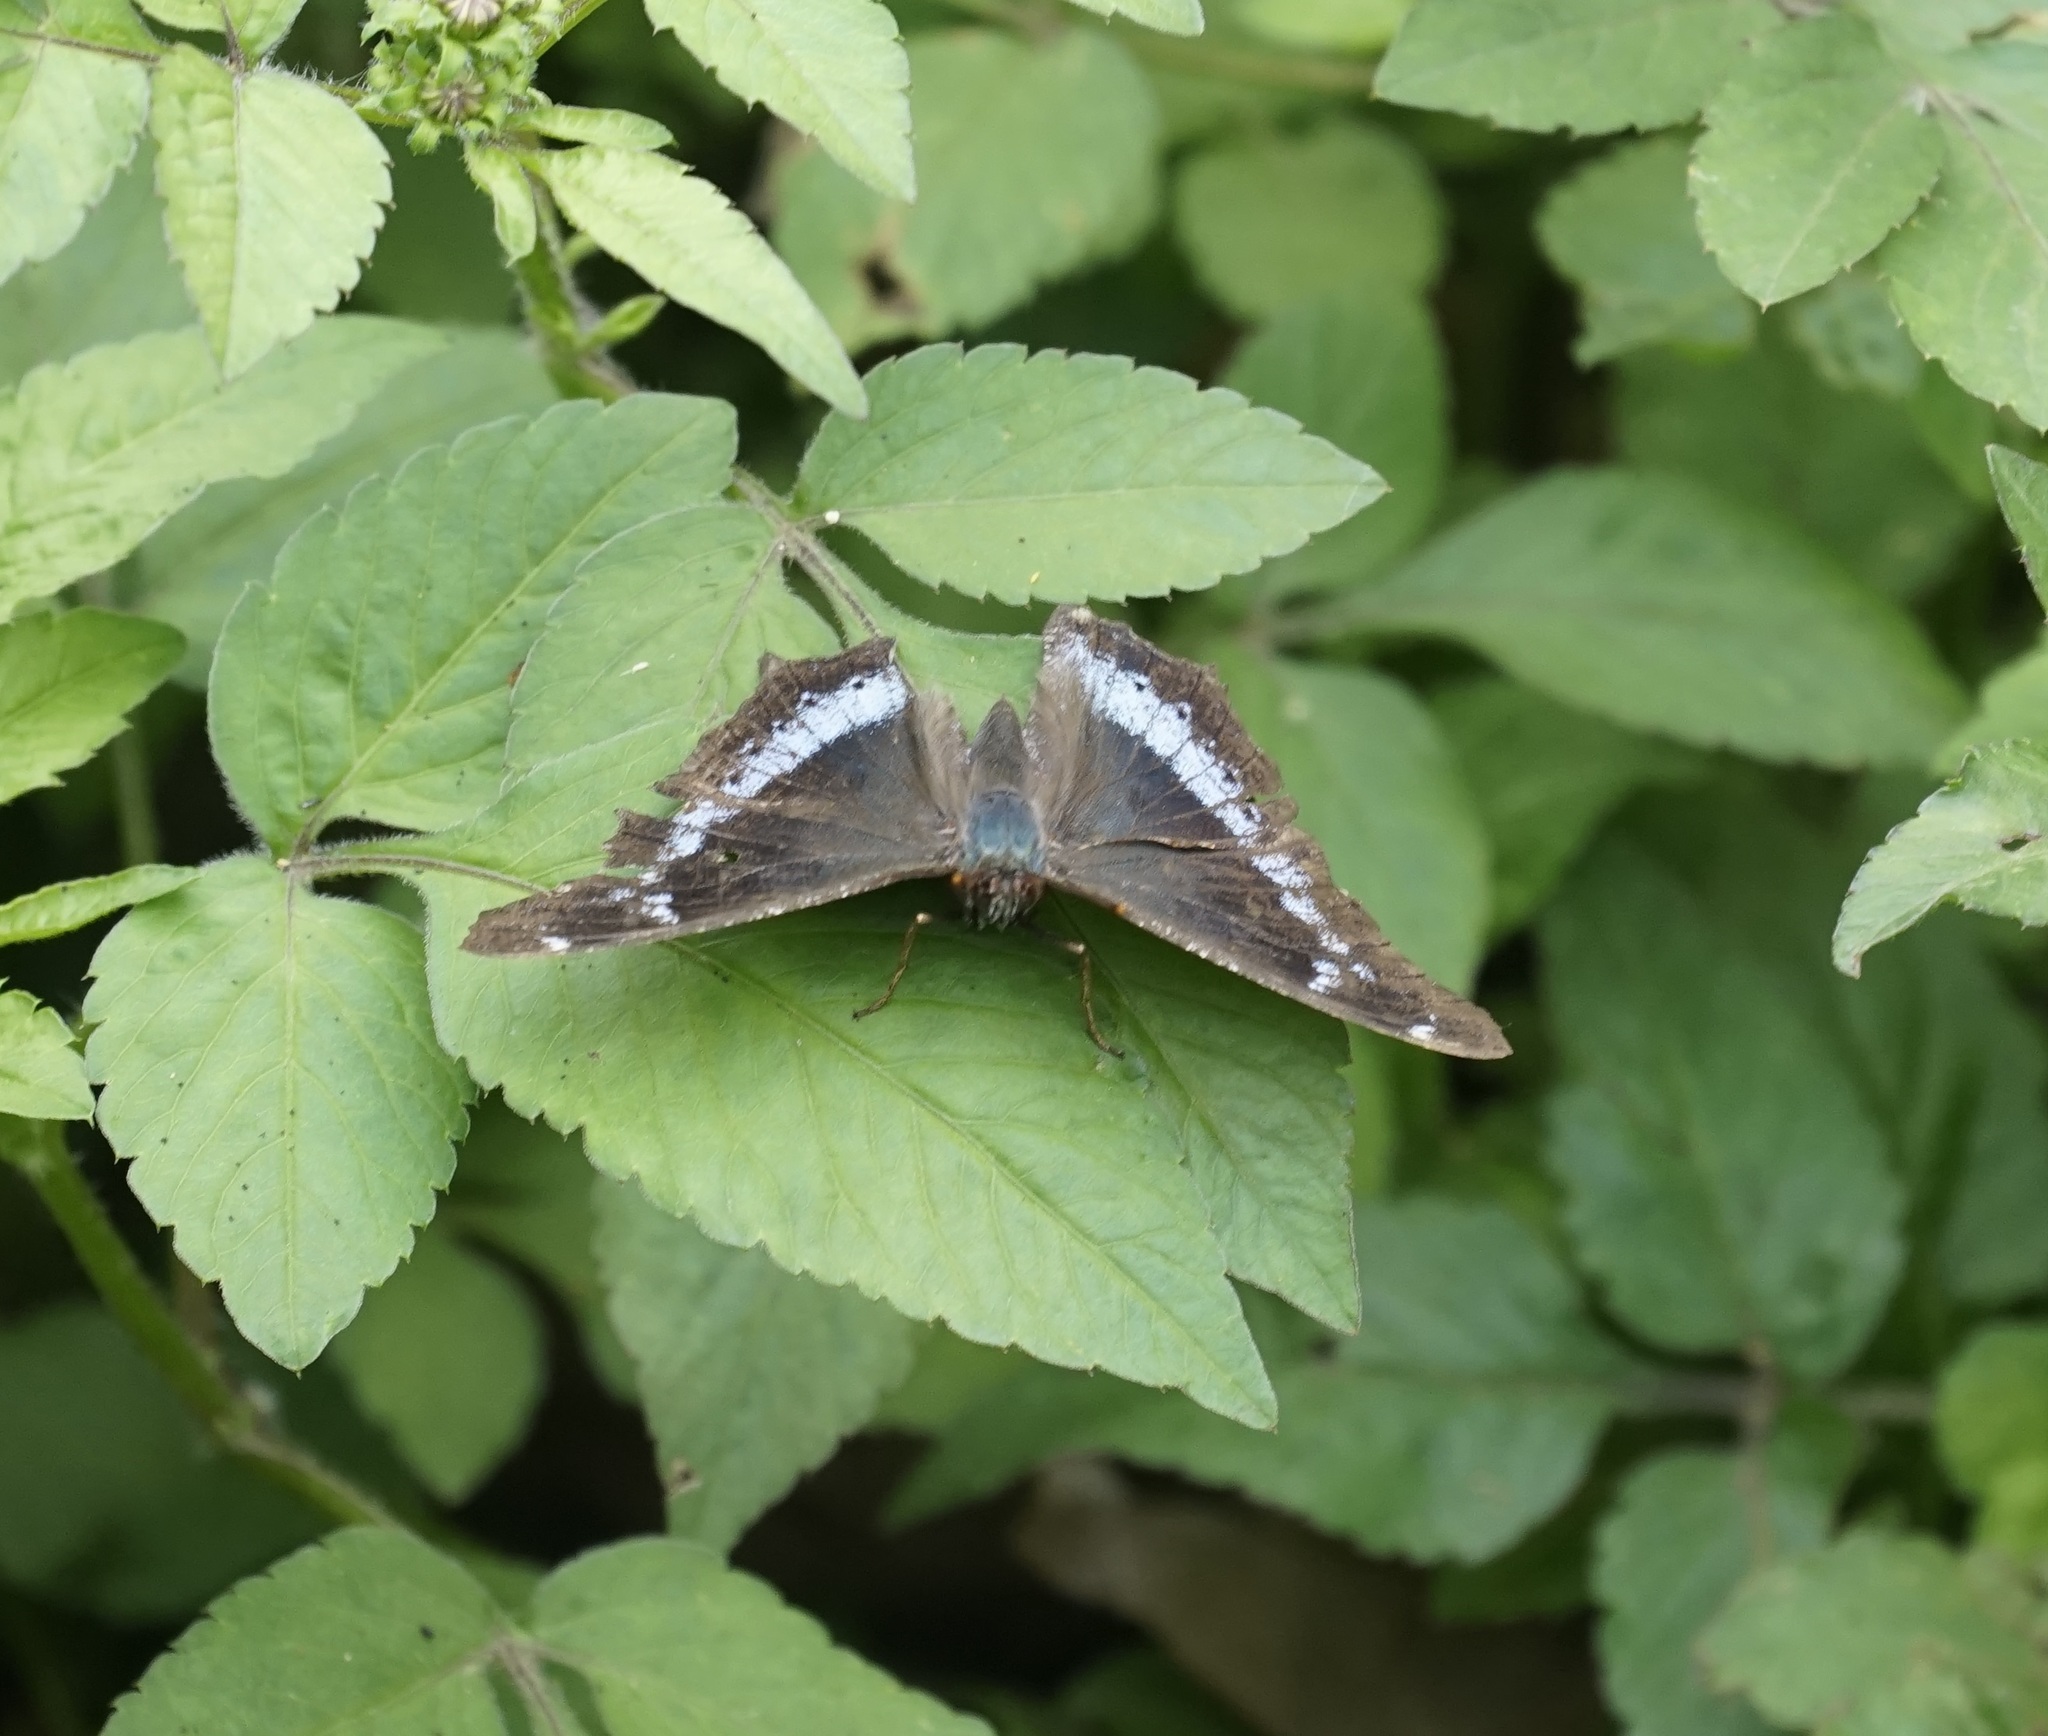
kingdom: Animalia
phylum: Arthropoda
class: Insecta
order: Lepidoptera
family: Nymphalidae
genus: Vanessa
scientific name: Vanessa Kaniska canace
